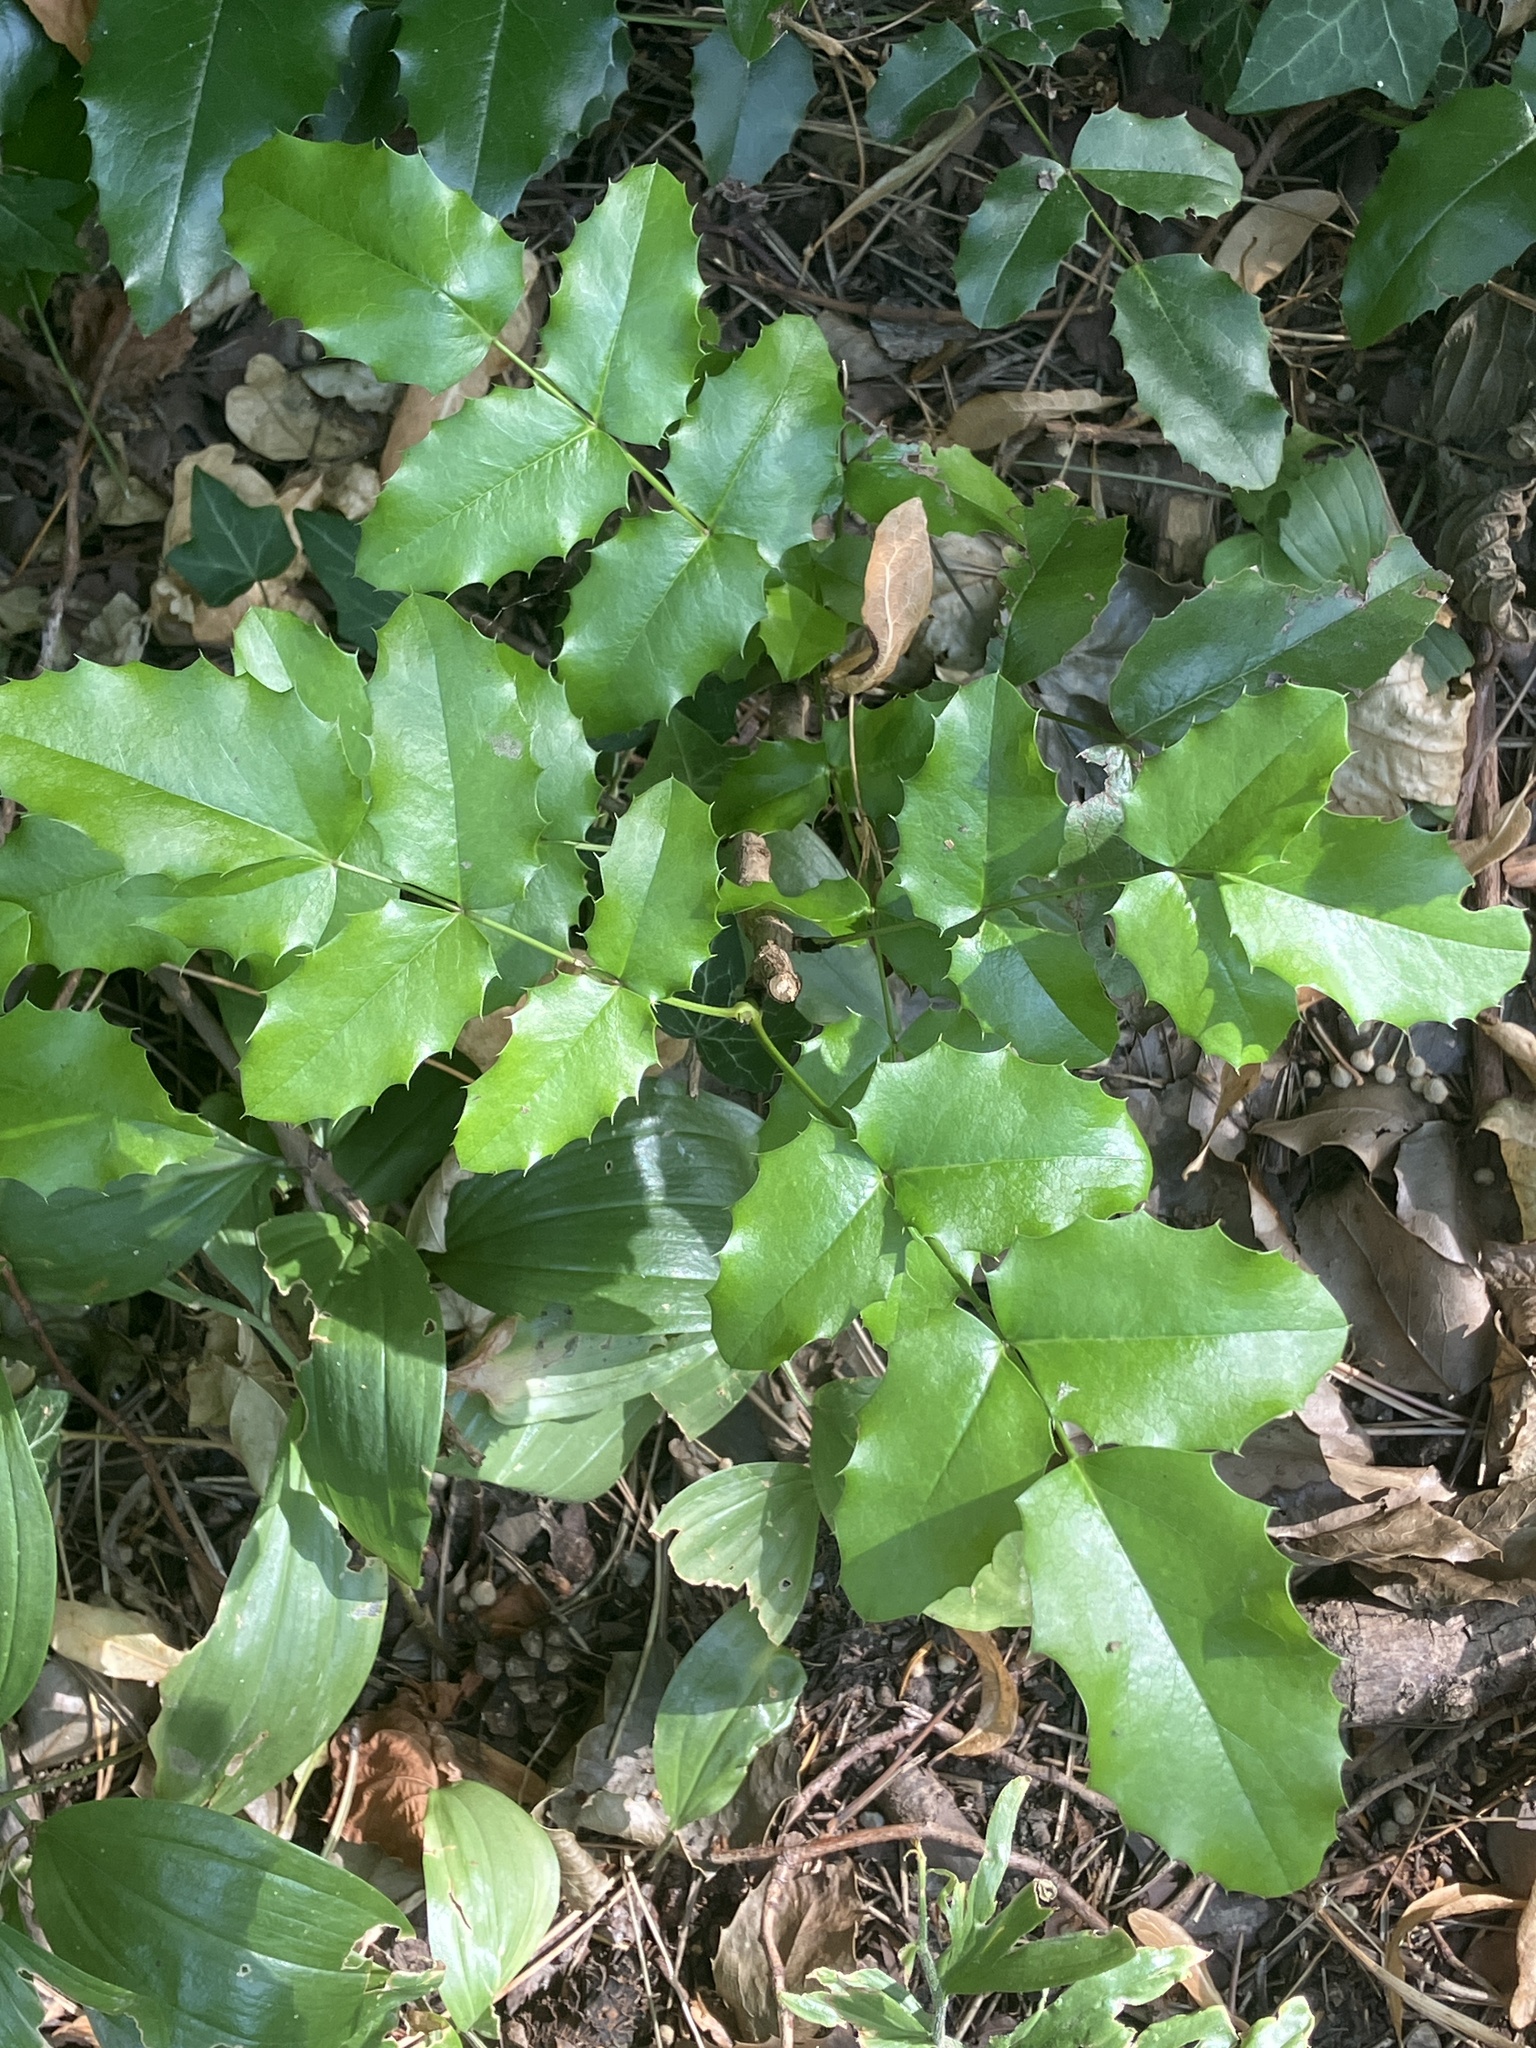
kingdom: Plantae
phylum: Tracheophyta
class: Magnoliopsida
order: Ranunculales
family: Berberidaceae
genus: Mahonia
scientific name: Mahonia aquifolium
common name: Oregon-grape
